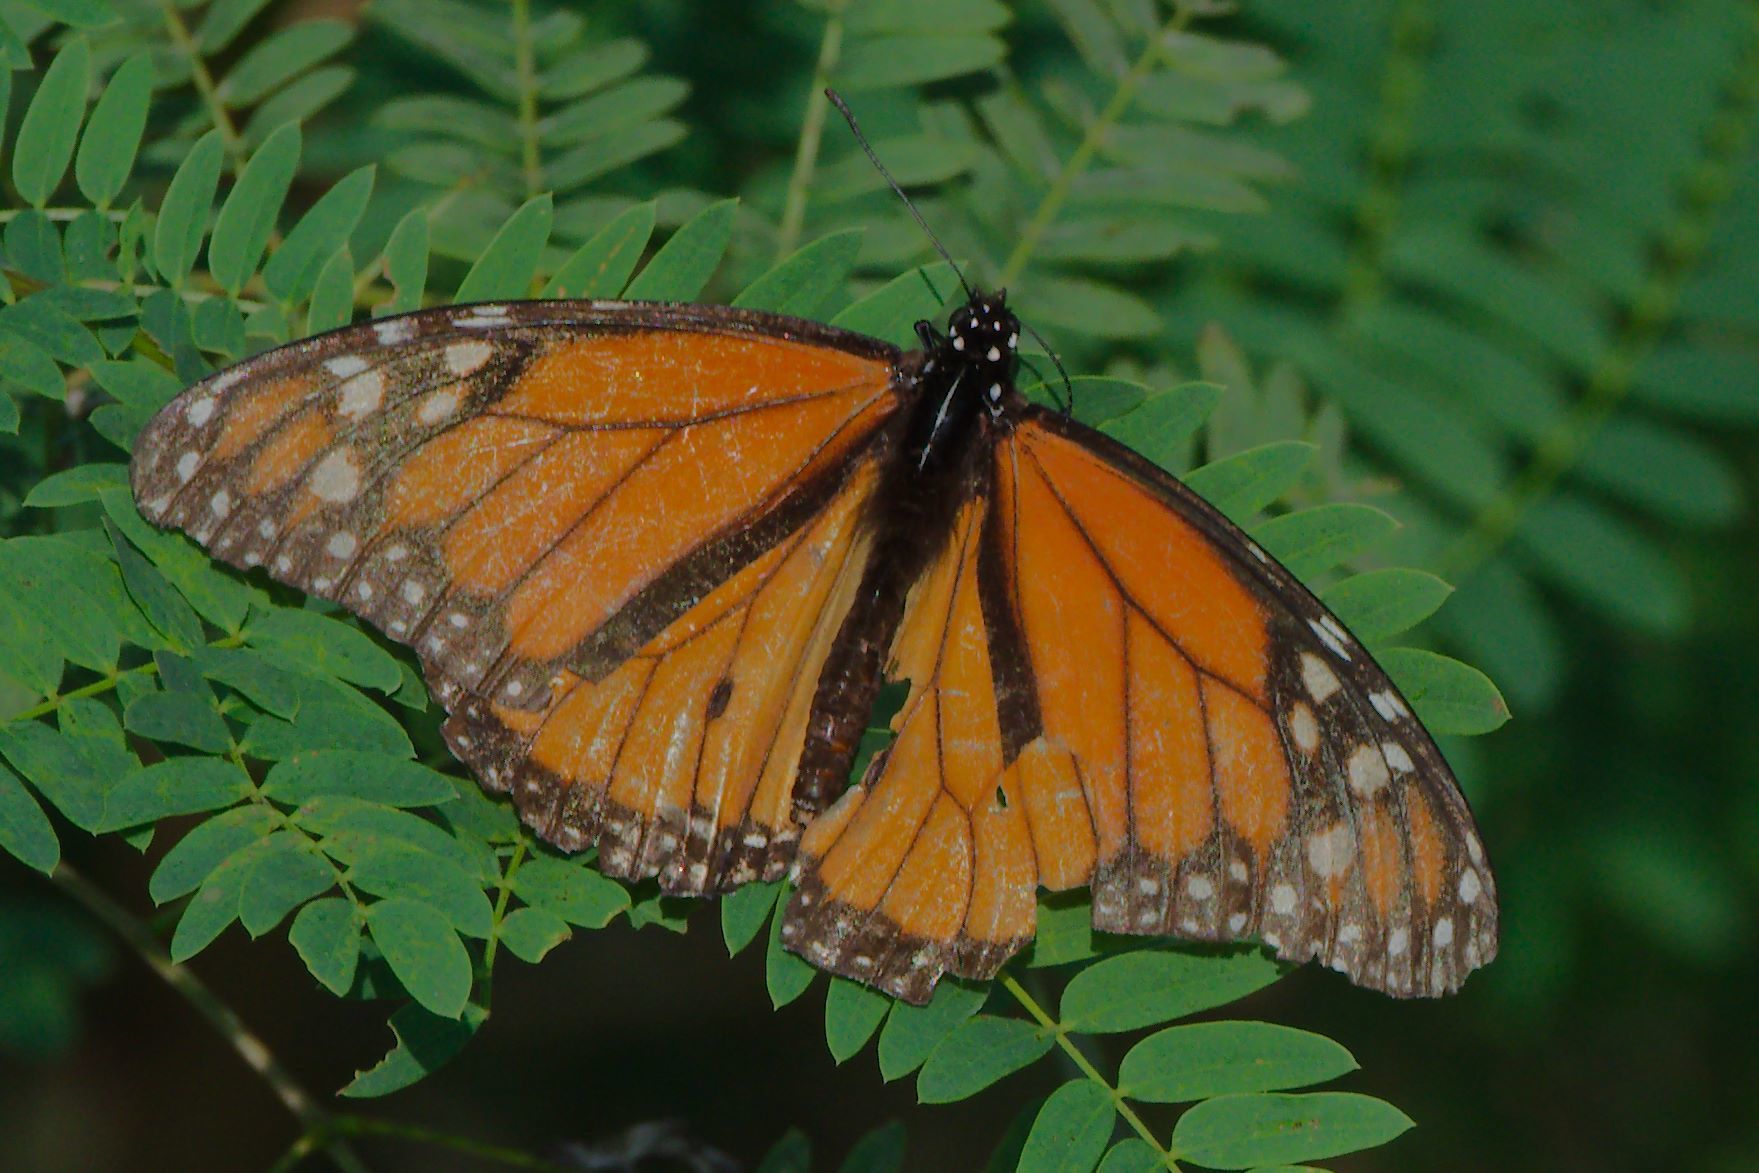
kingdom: Animalia
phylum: Arthropoda
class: Insecta
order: Lepidoptera
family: Nymphalidae
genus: Danaus
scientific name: Danaus plexippus
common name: Monarch
